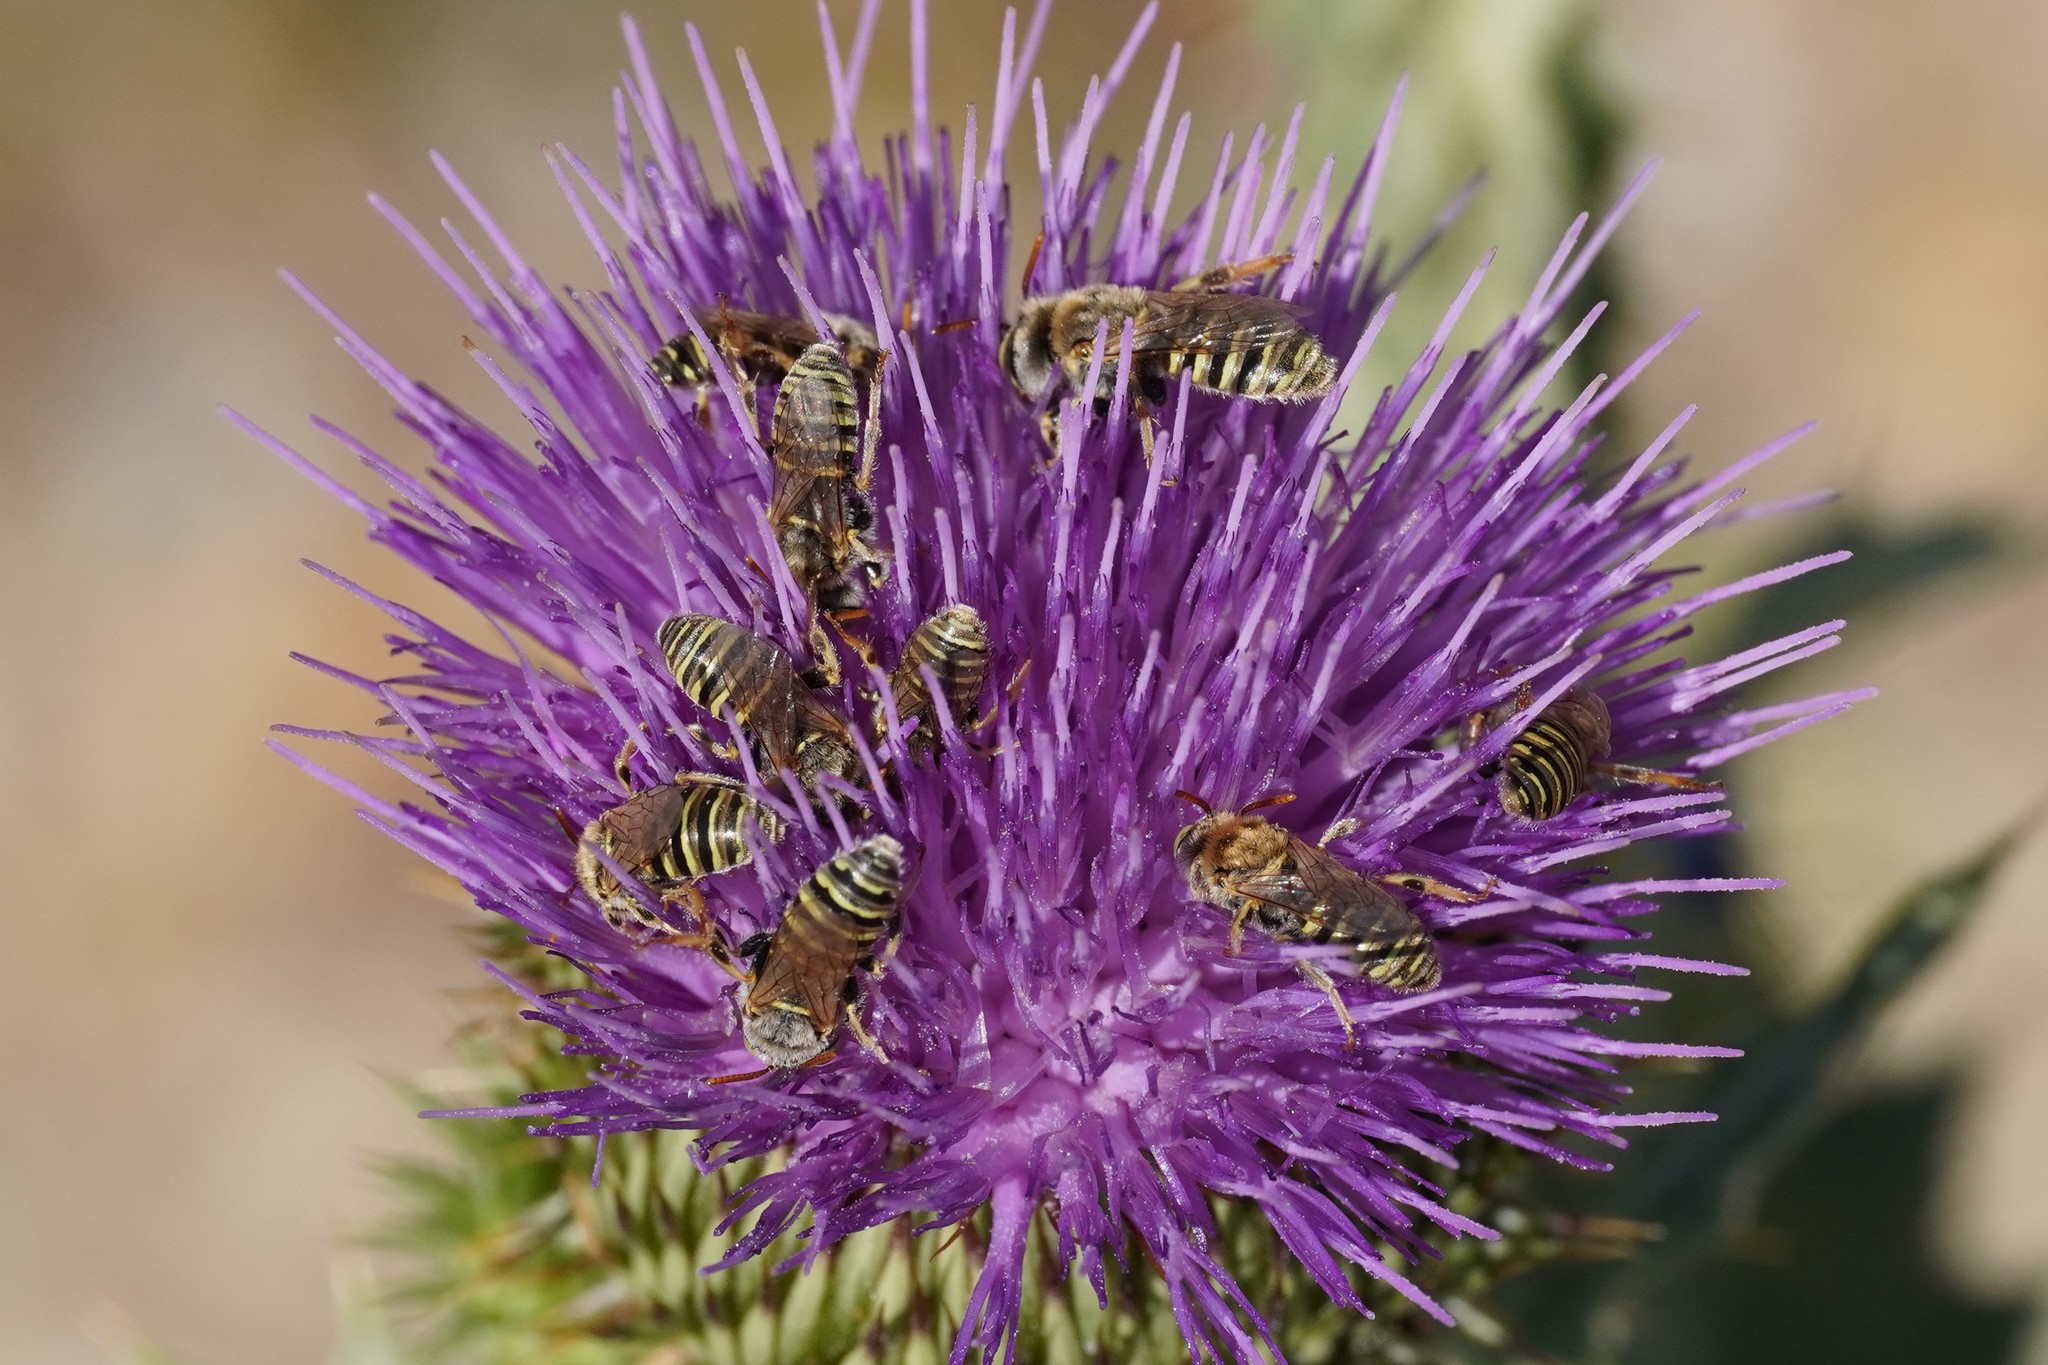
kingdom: Animalia
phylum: Arthropoda
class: Insecta
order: Hymenoptera
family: Andrenidae
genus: Camptopoeum
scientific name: Camptopoeum friesei
